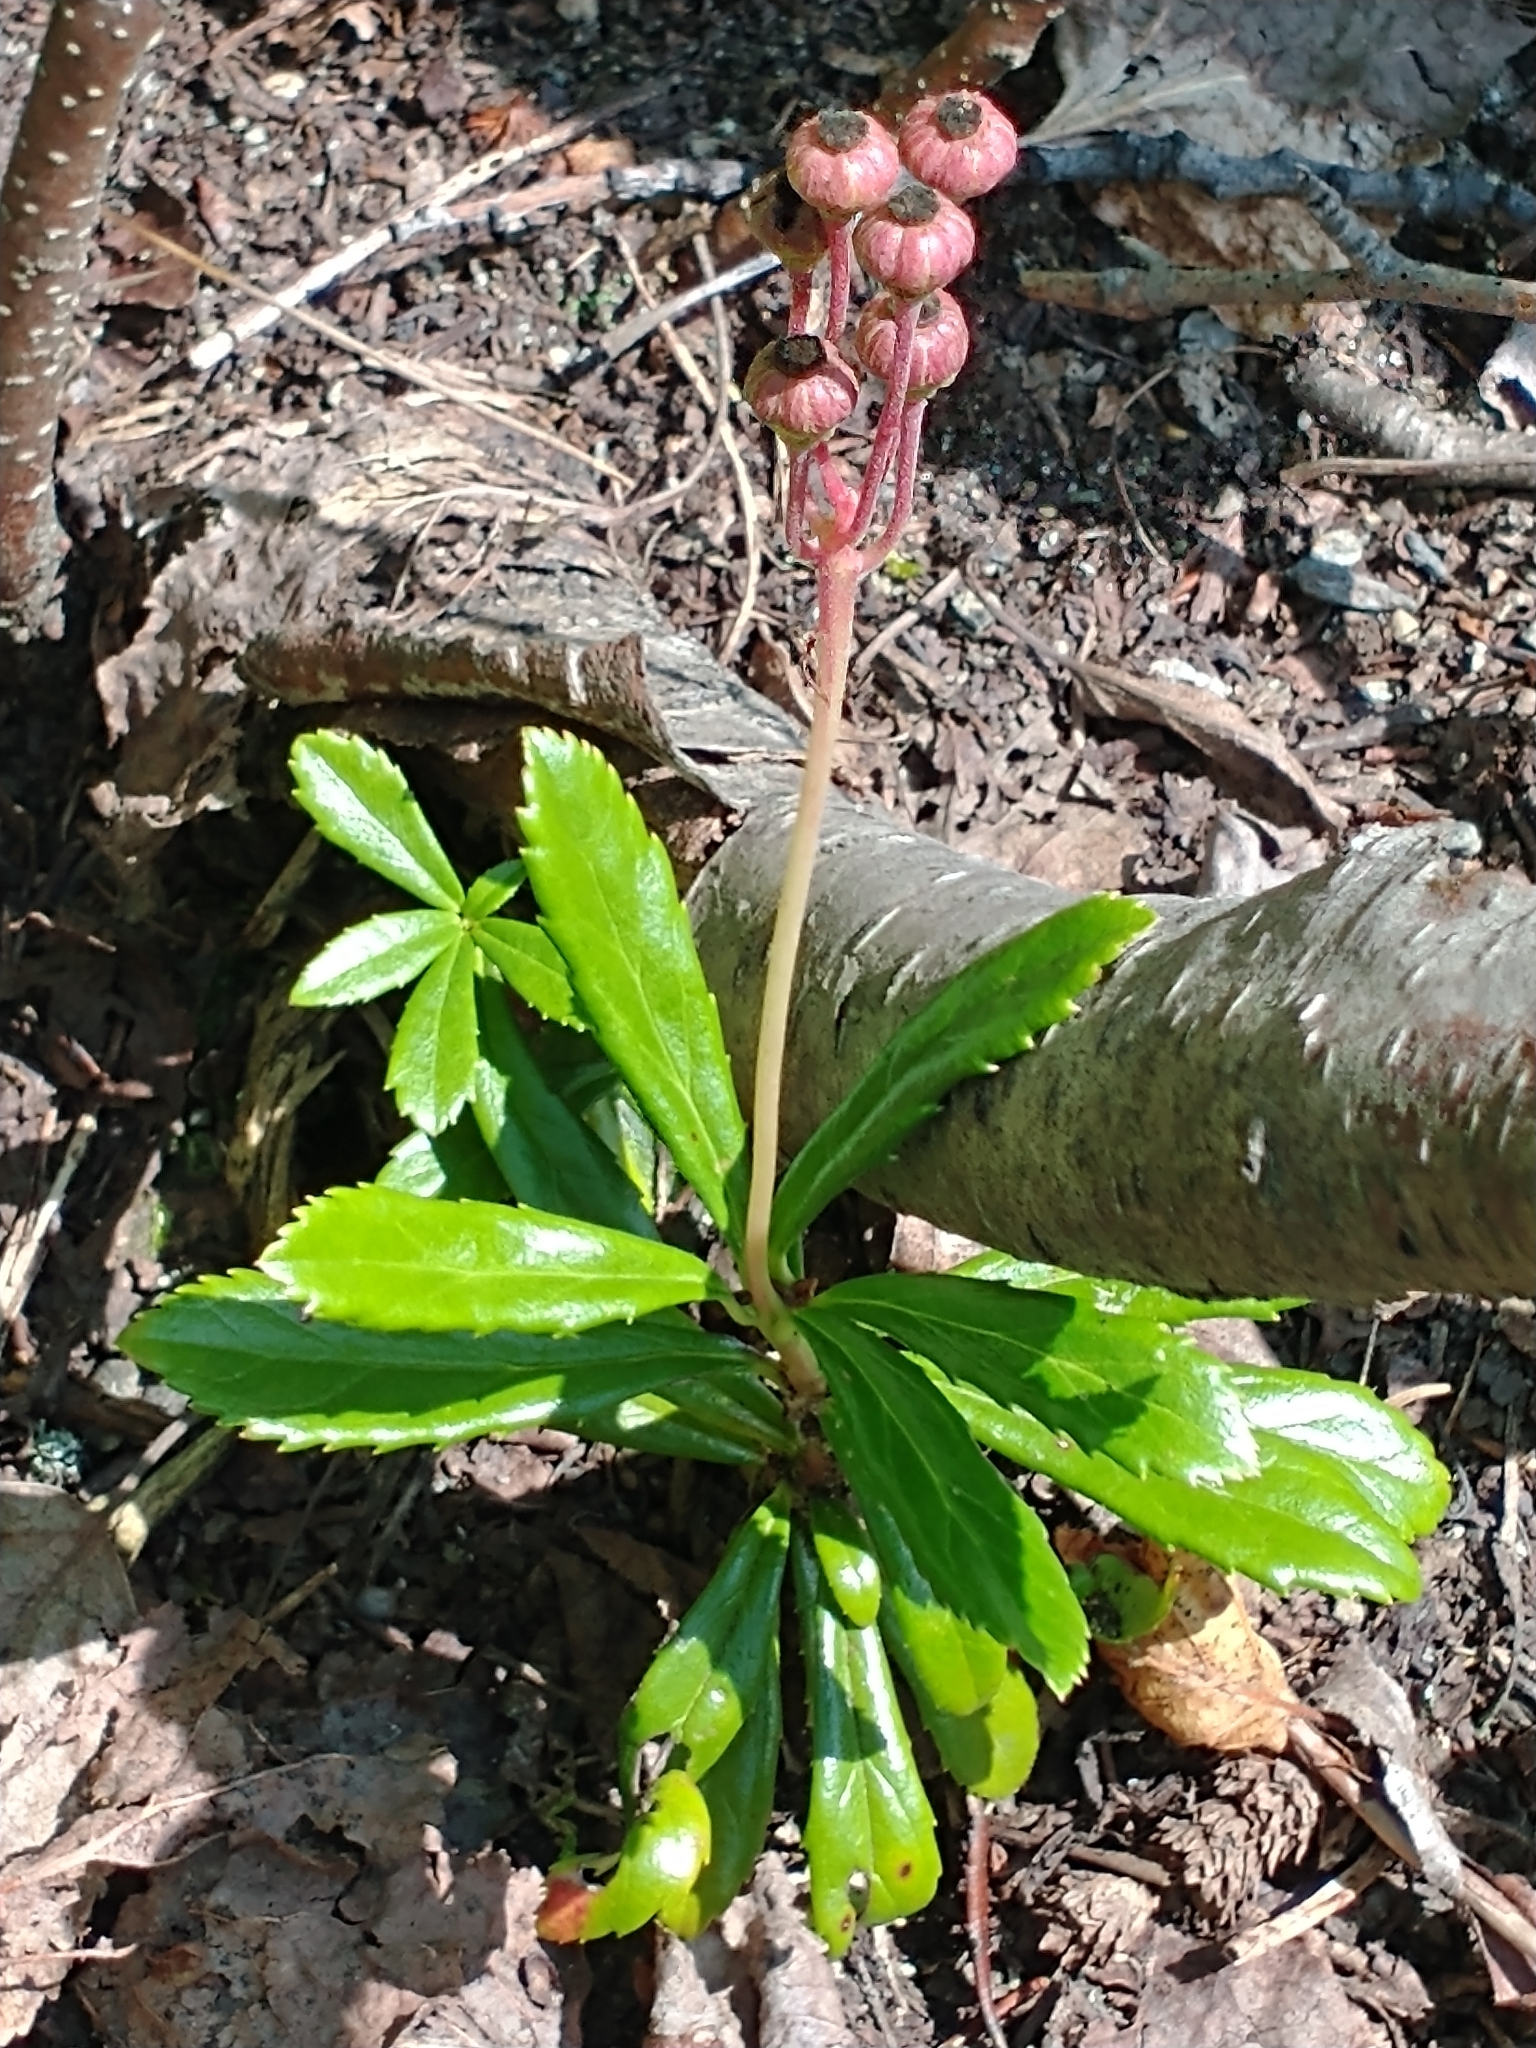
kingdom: Plantae
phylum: Tracheophyta
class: Magnoliopsida
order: Ericales
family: Ericaceae
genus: Chimaphila
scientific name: Chimaphila umbellata
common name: Pipsissewa
